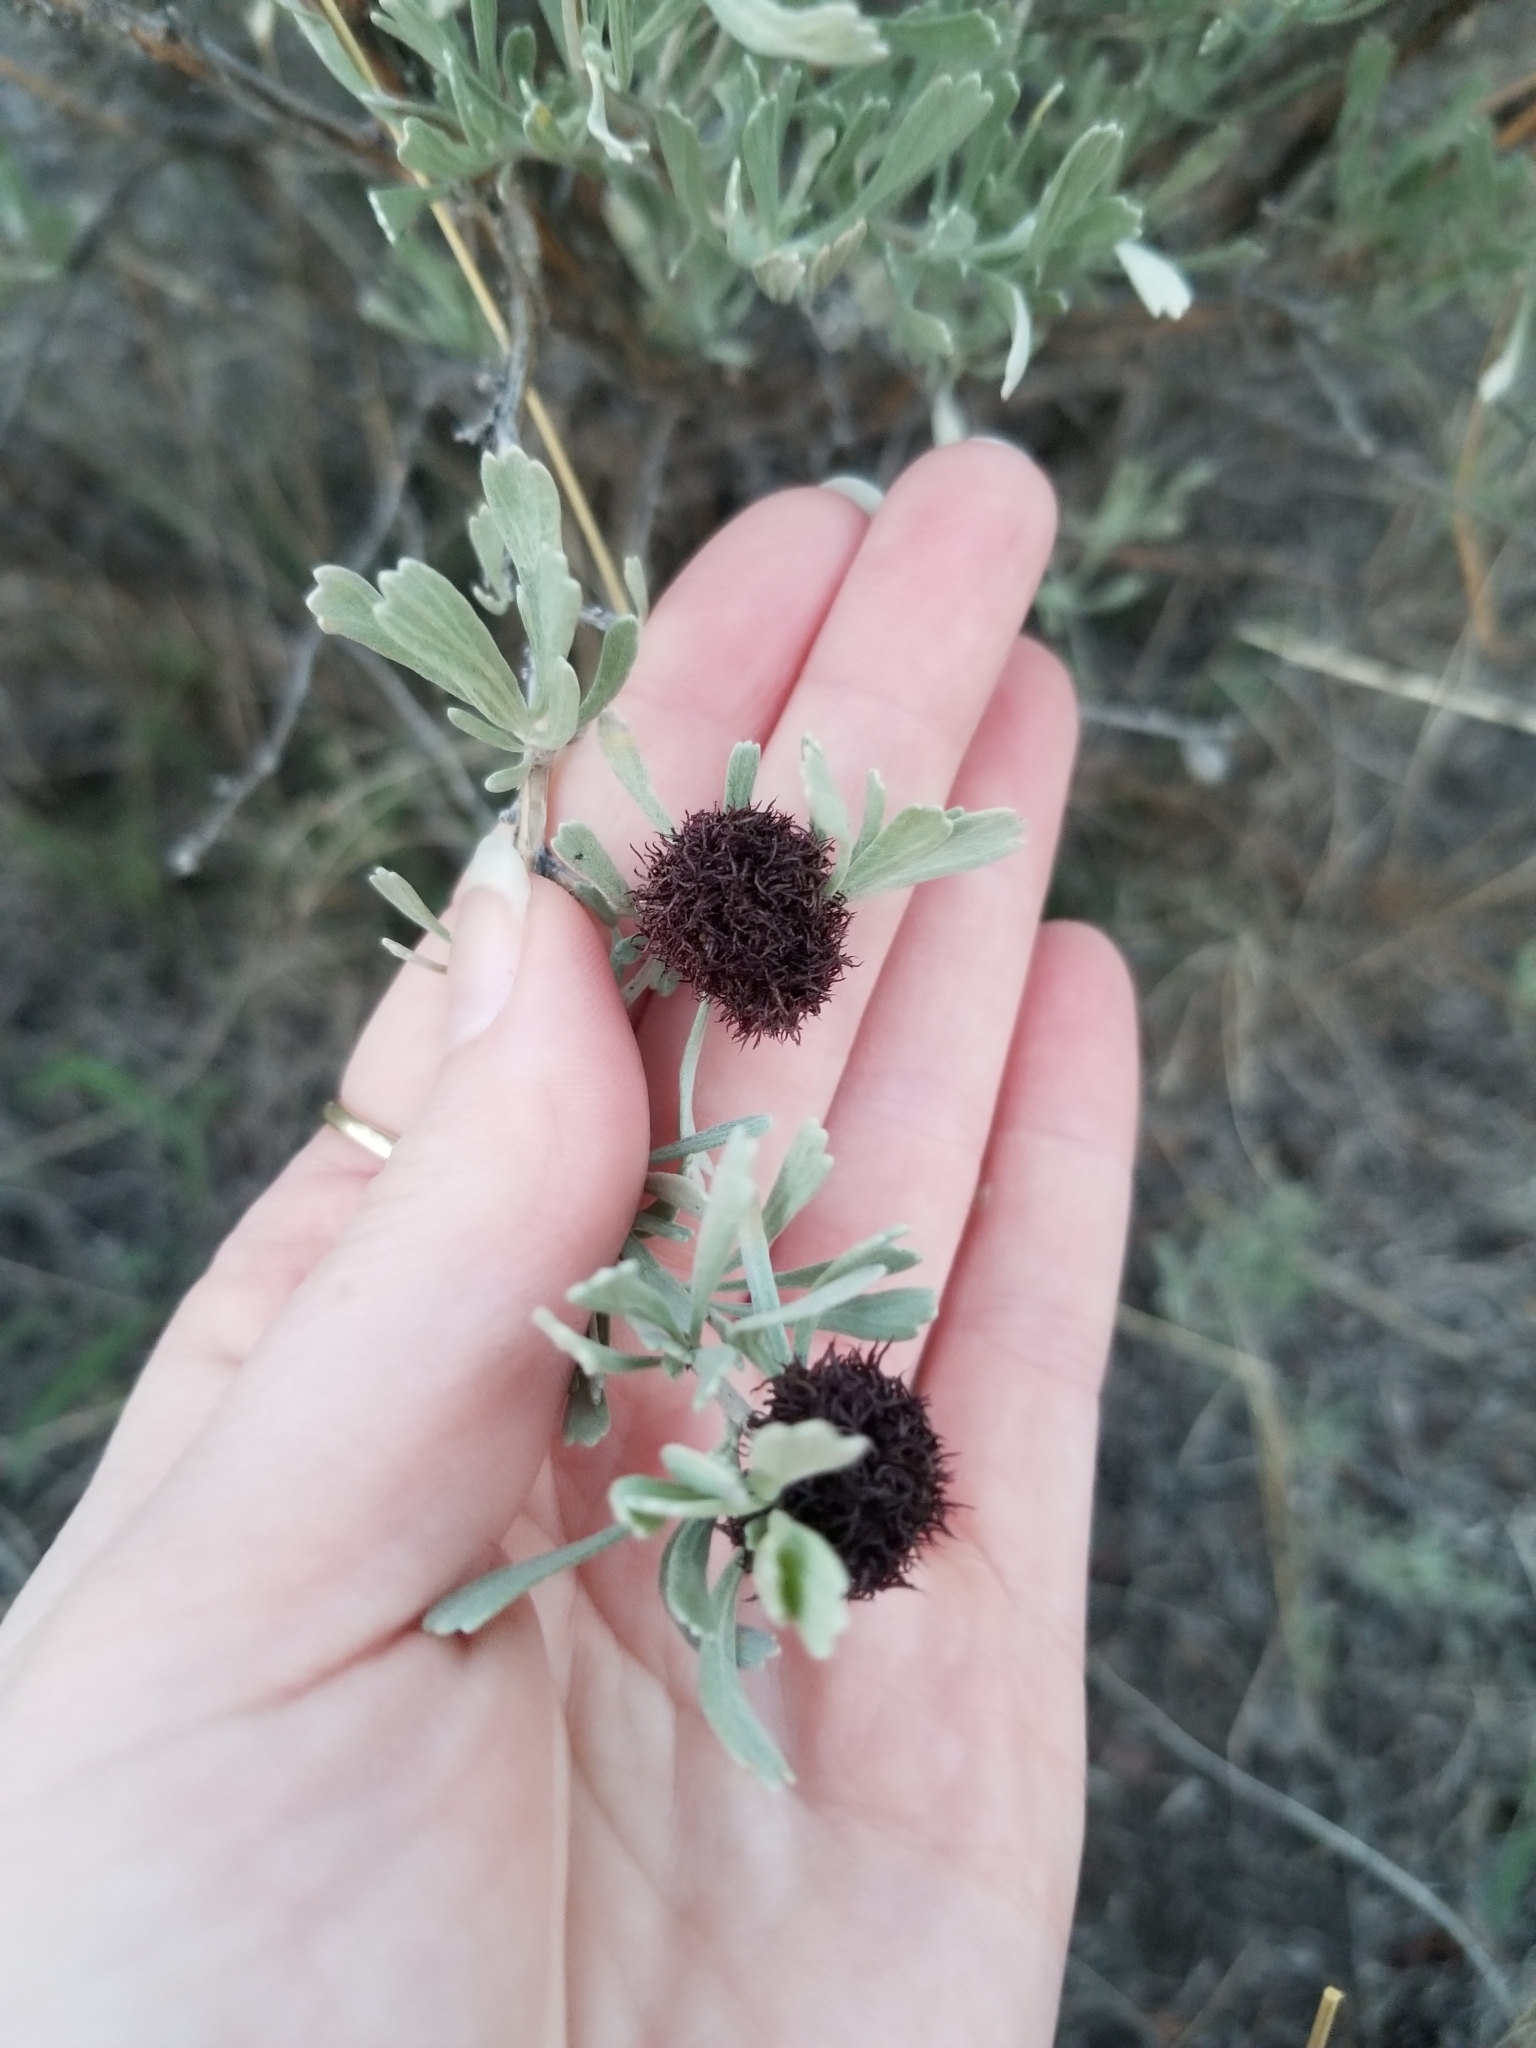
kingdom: Animalia
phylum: Arthropoda
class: Insecta
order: Diptera
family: Cecidomyiidae
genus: Rhopalomyia
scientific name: Rhopalomyia medusa
